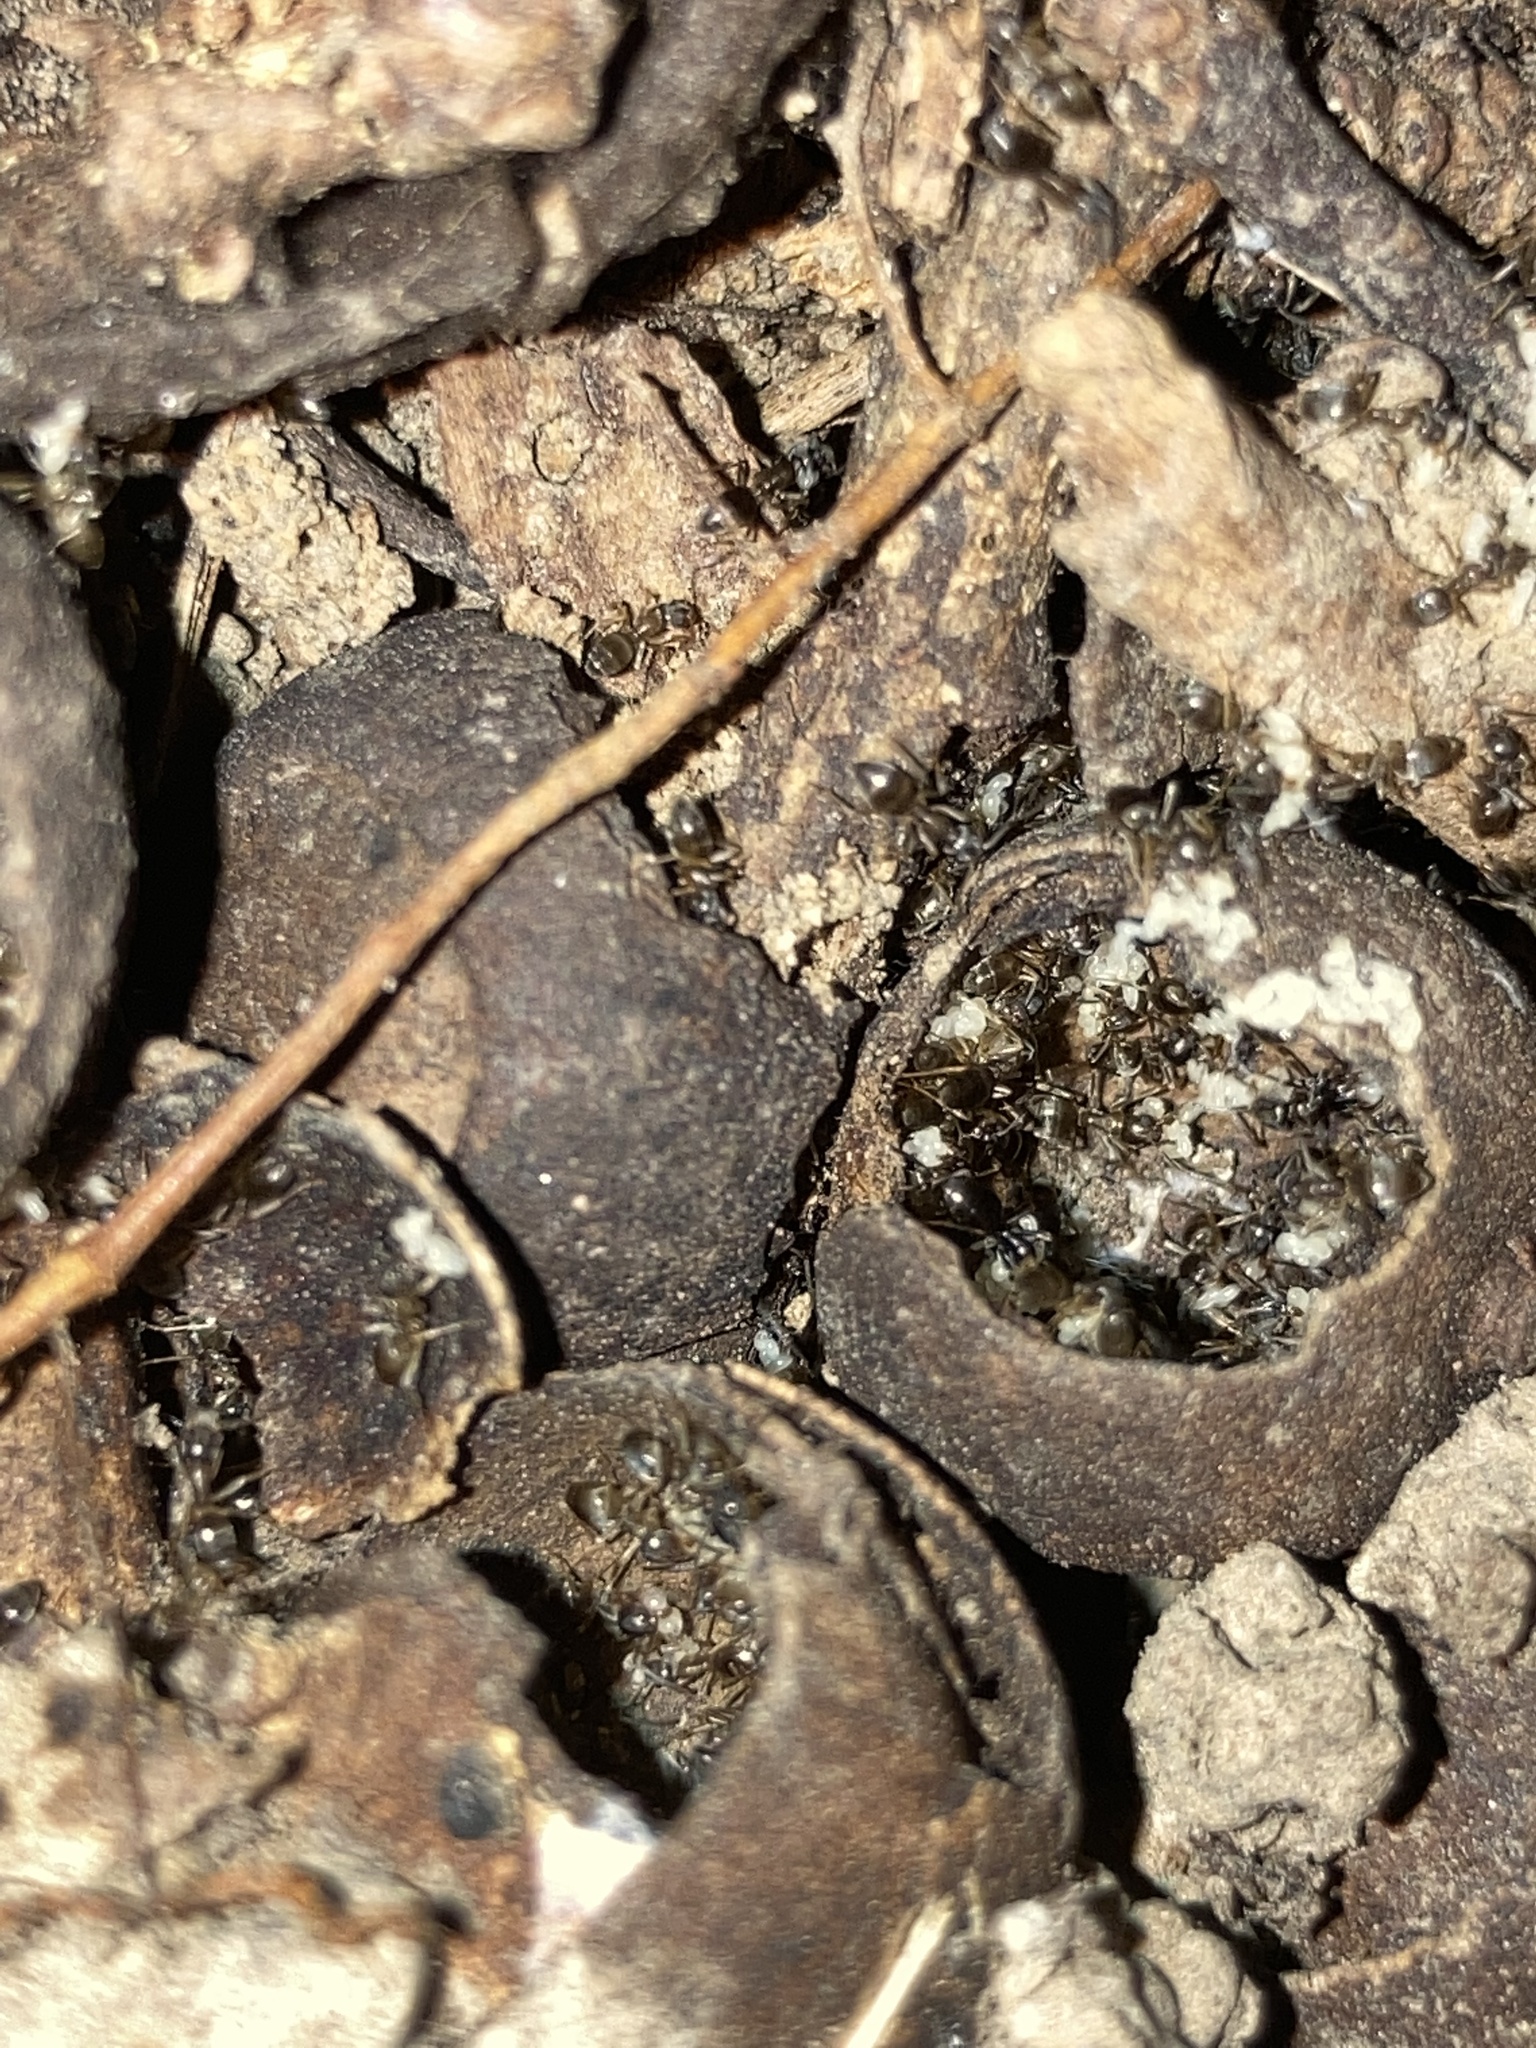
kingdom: Animalia
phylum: Arthropoda
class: Insecta
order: Hymenoptera
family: Formicidae
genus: Tapinoma
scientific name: Tapinoma sessile
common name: Odorous house ant
